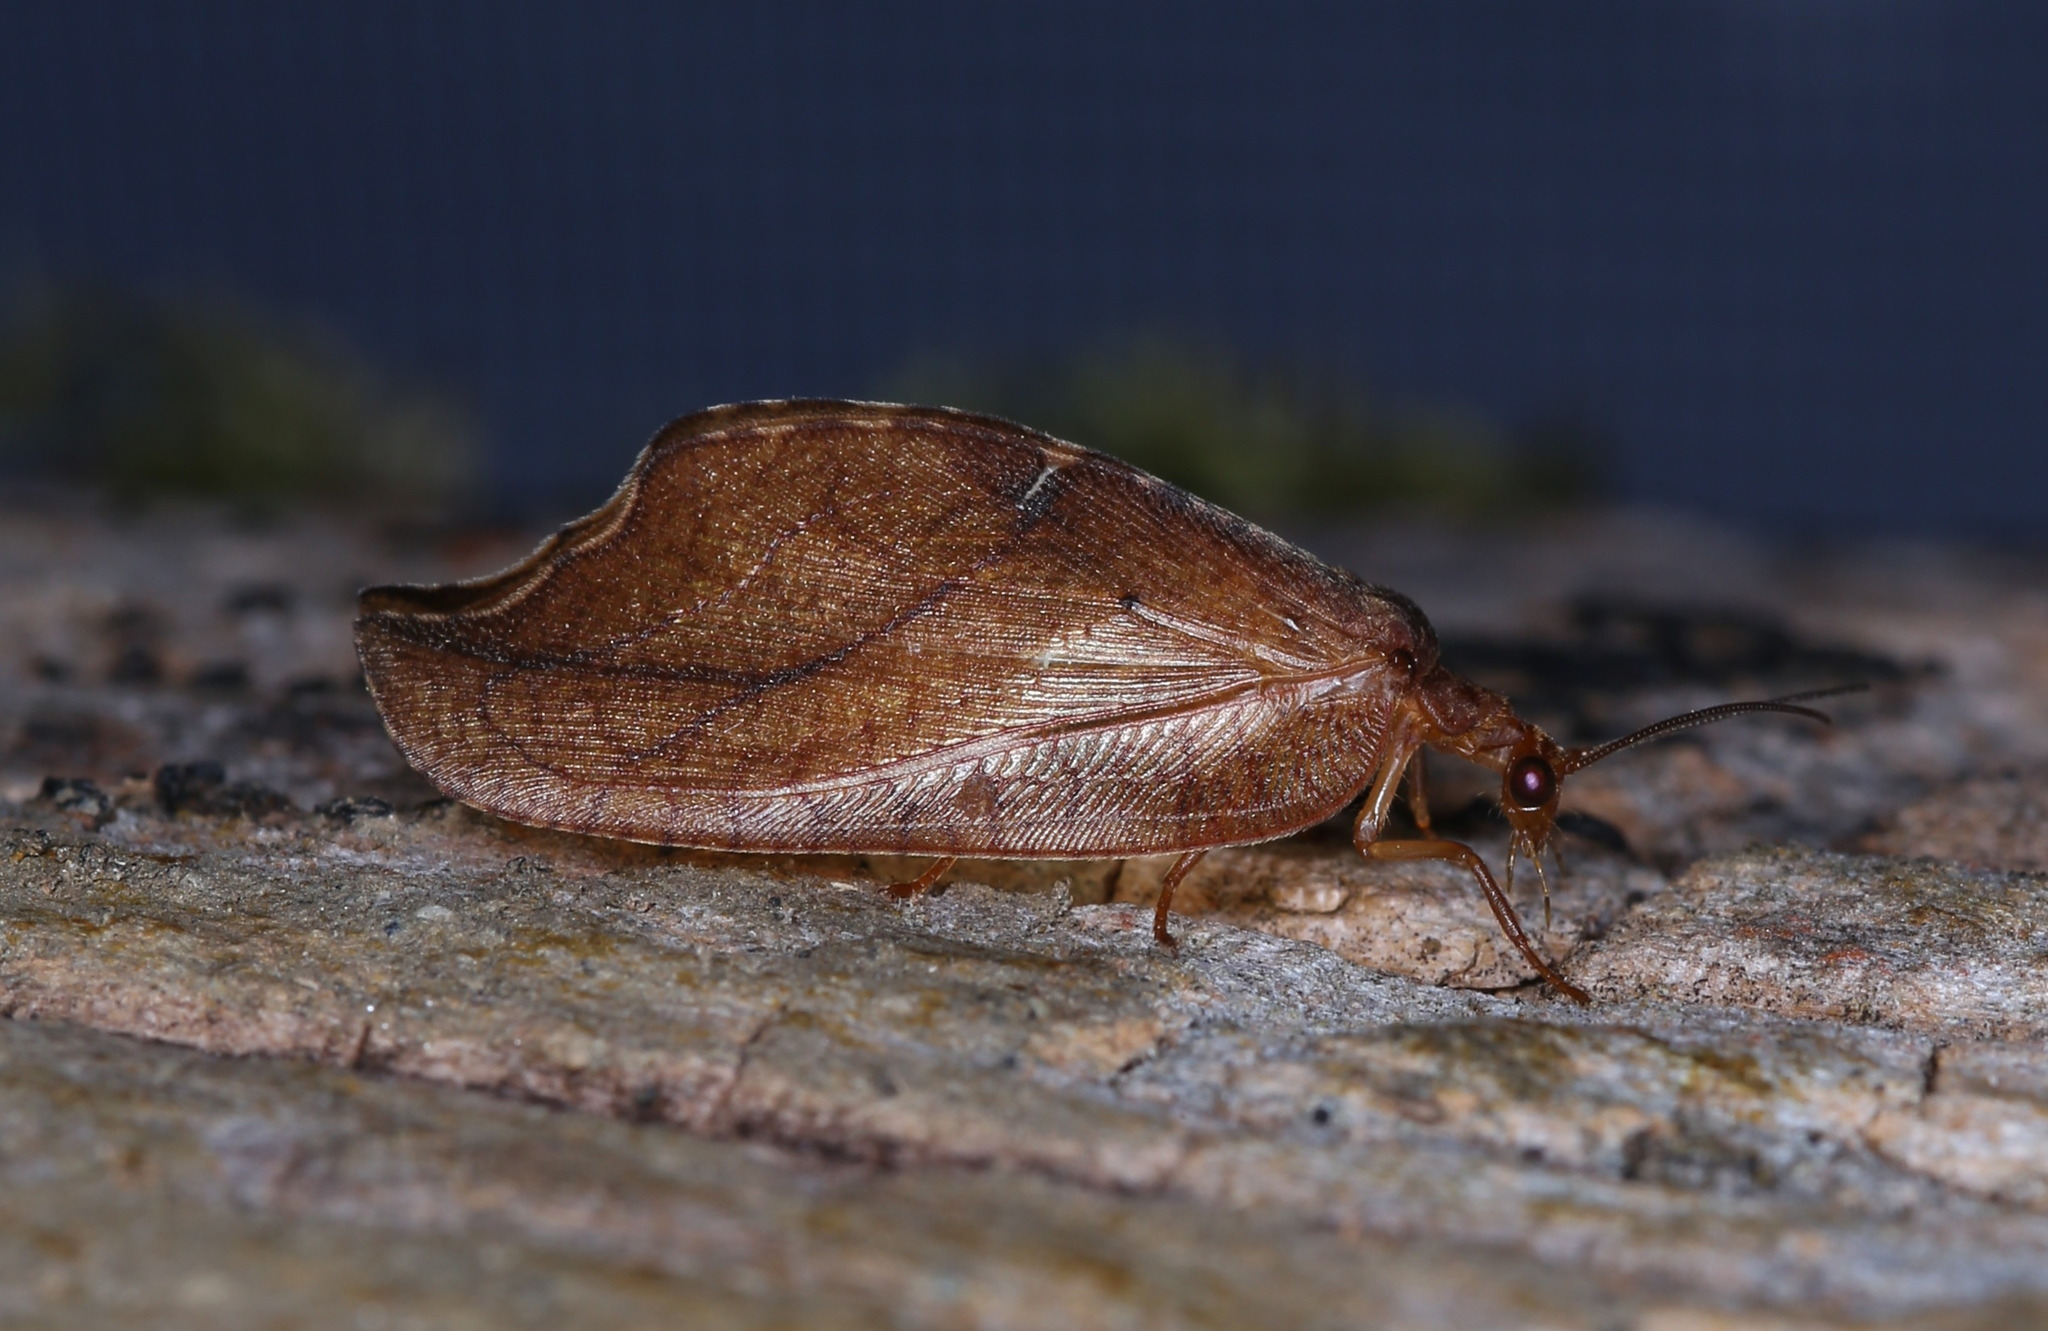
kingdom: Animalia
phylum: Arthropoda
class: Insecta
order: Neuroptera
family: Hemerobiidae
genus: Drepanepteryx
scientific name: Drepanepteryx phalaenoides
